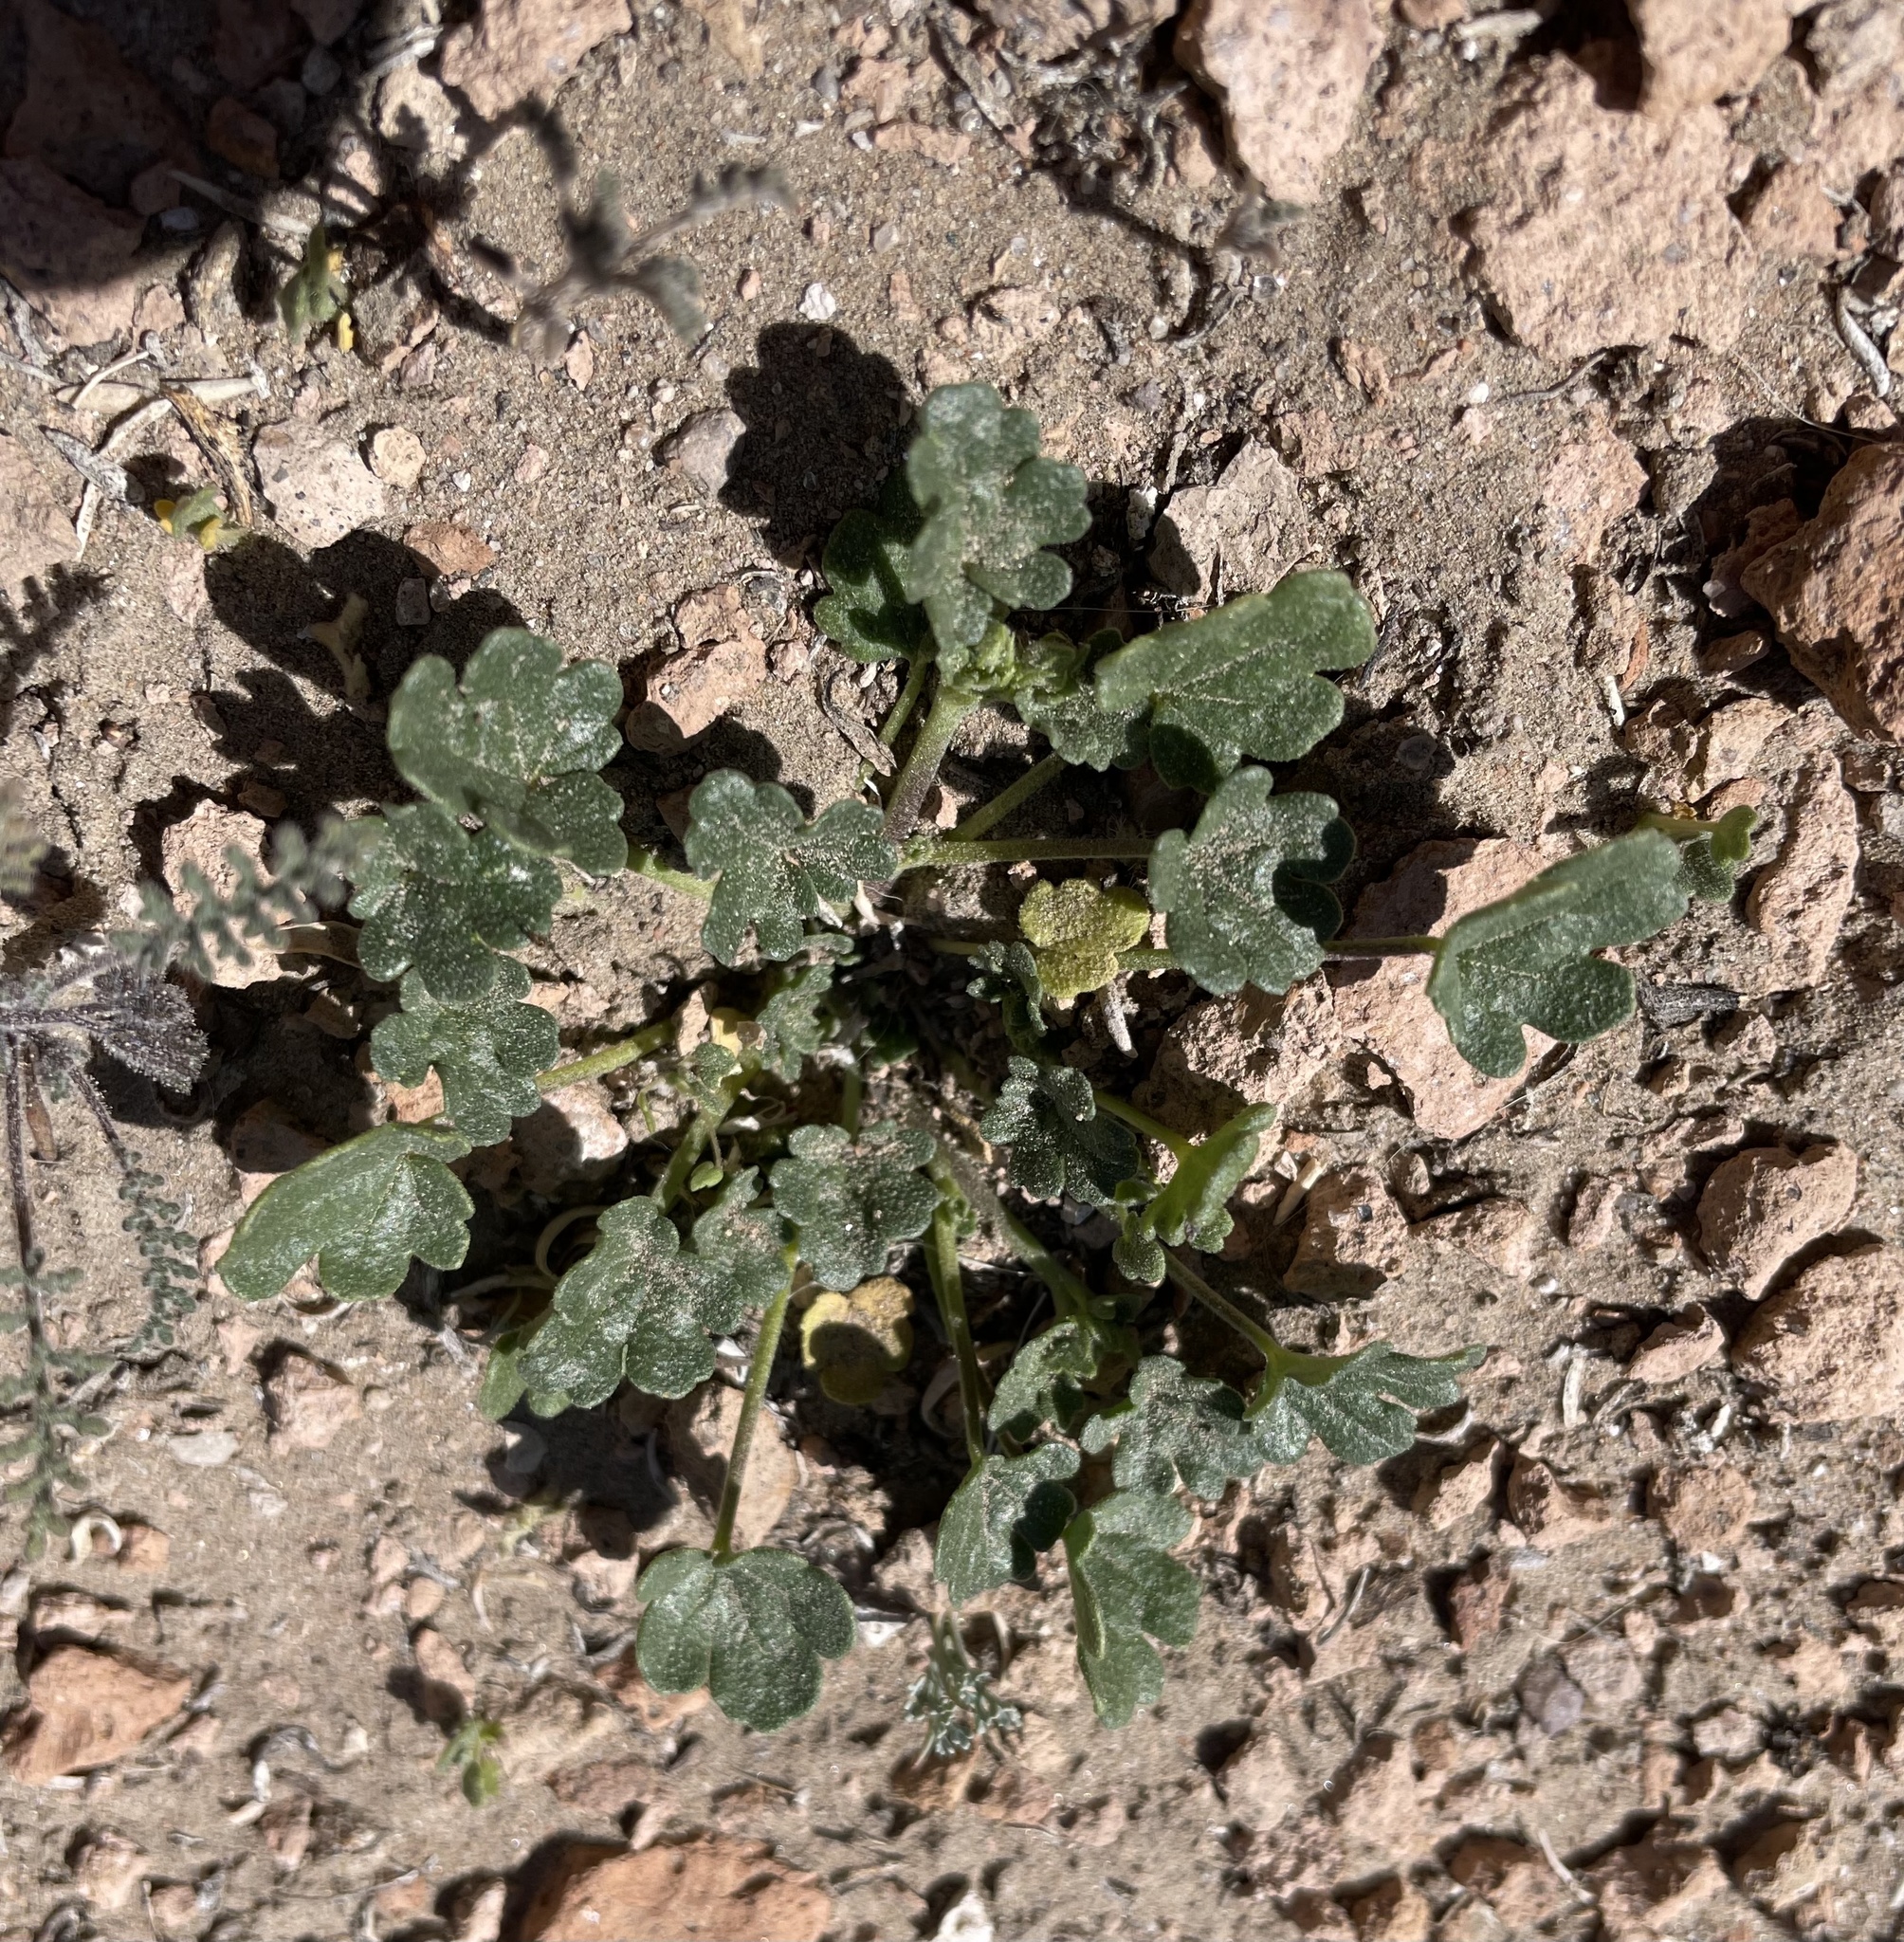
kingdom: Plantae
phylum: Tracheophyta
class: Magnoliopsida
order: Malvales
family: Malvaceae
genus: Eremalche
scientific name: Eremalche exilis
